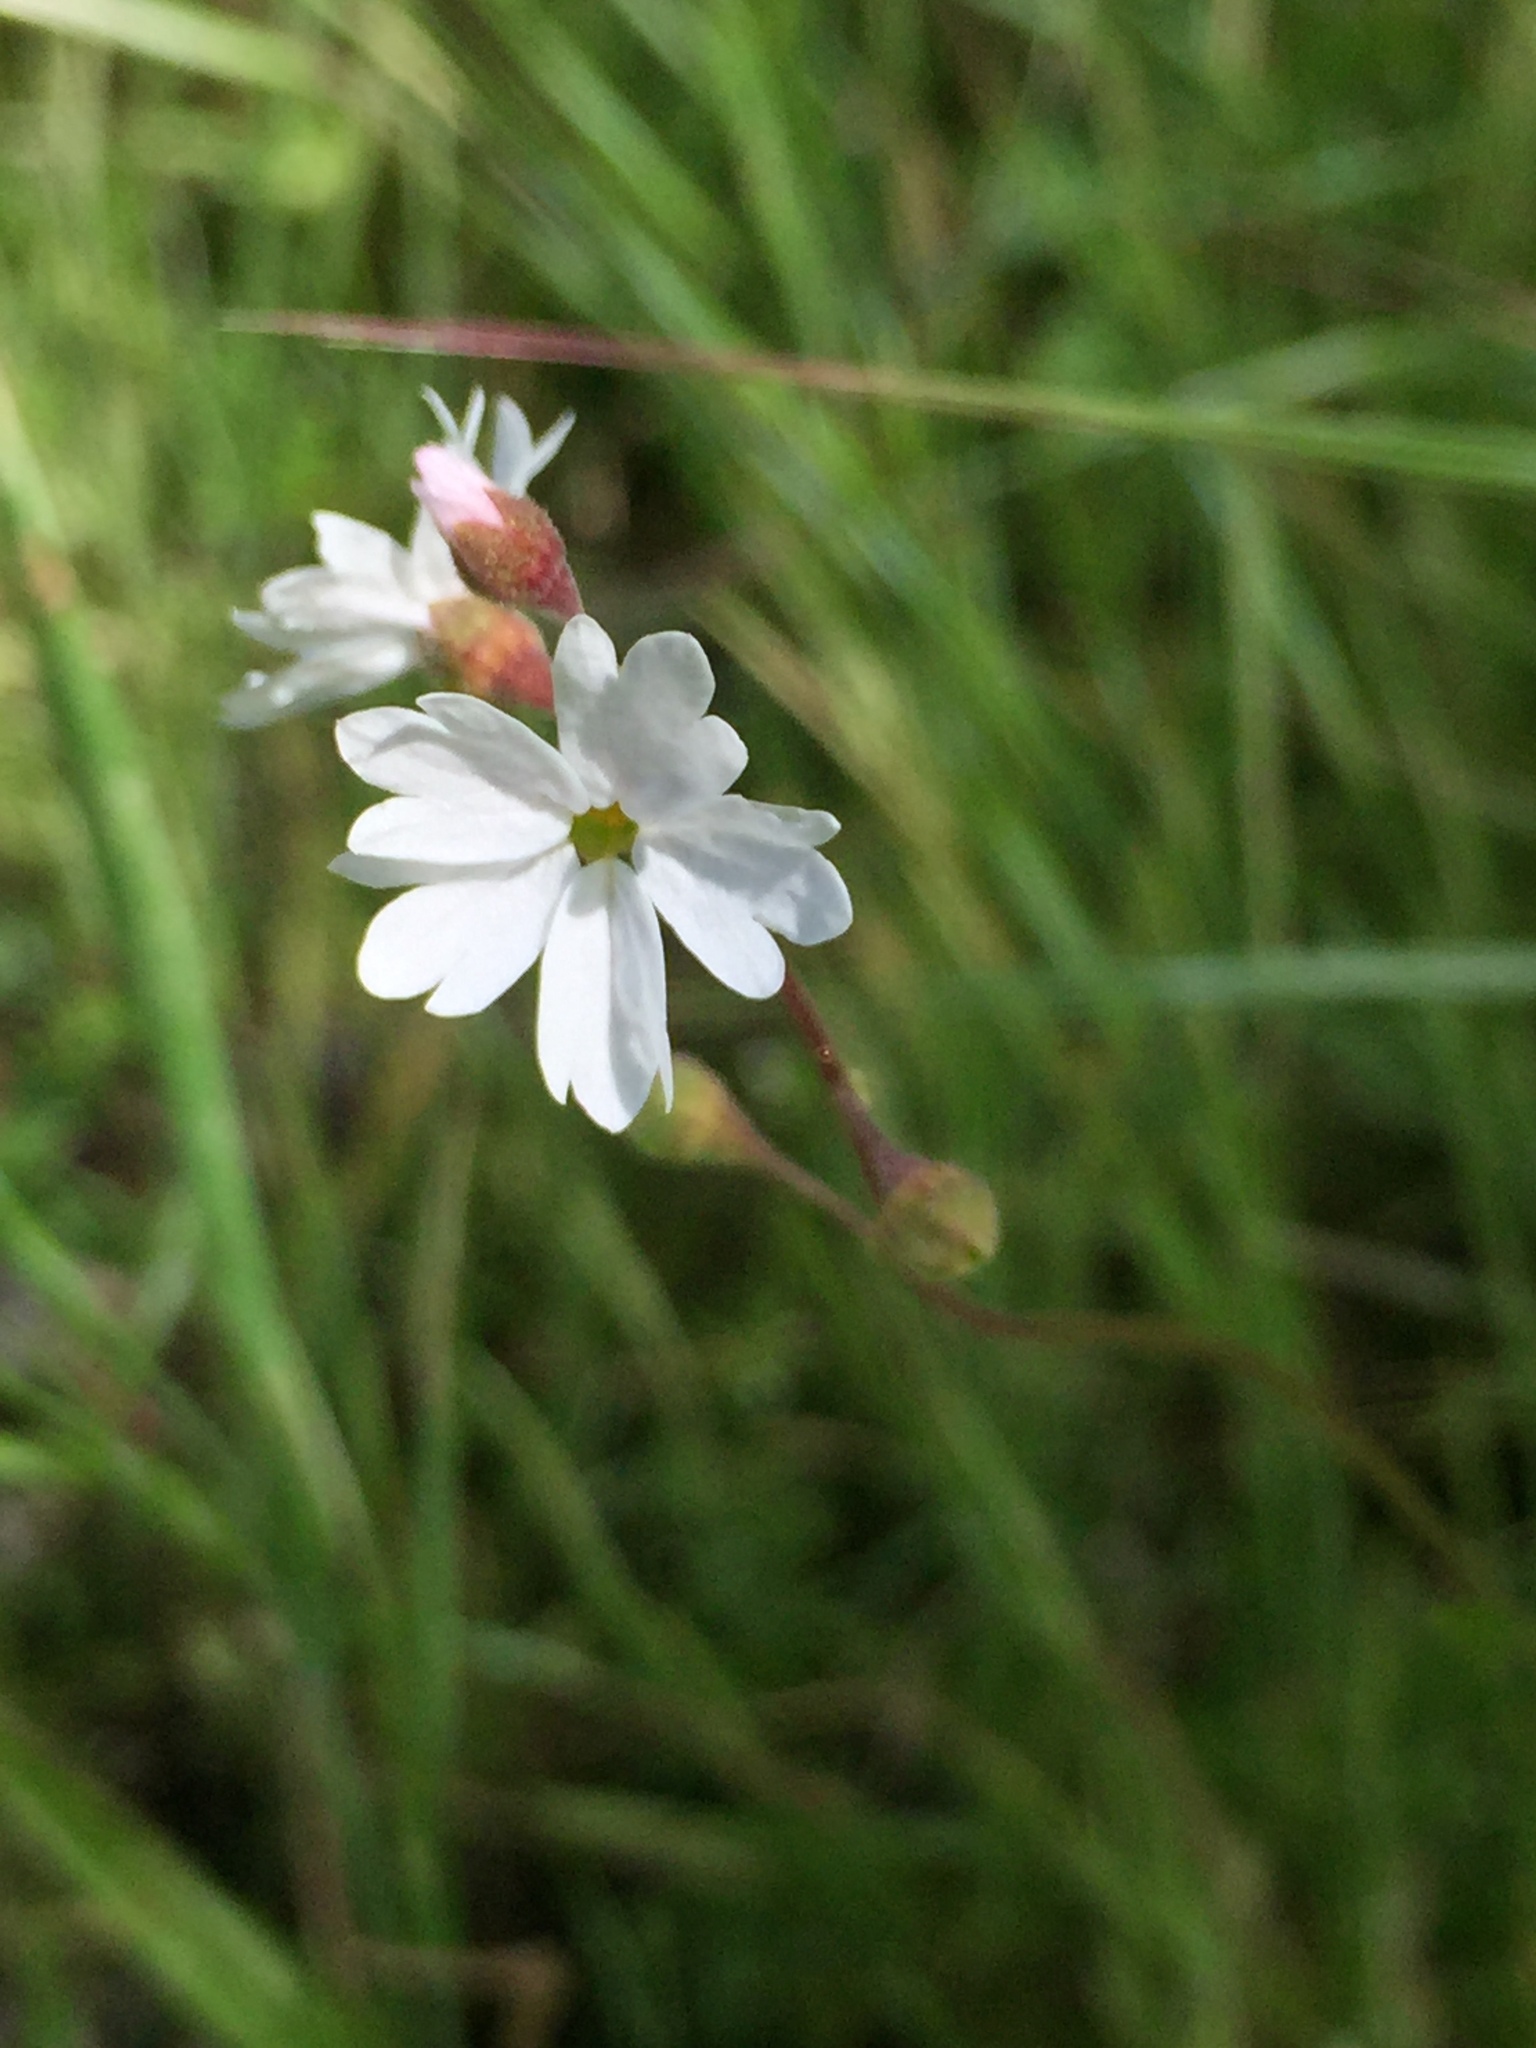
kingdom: Plantae
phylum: Tracheophyta
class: Magnoliopsida
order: Saxifragales
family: Saxifragaceae
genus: Lithophragma
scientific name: Lithophragma affine
